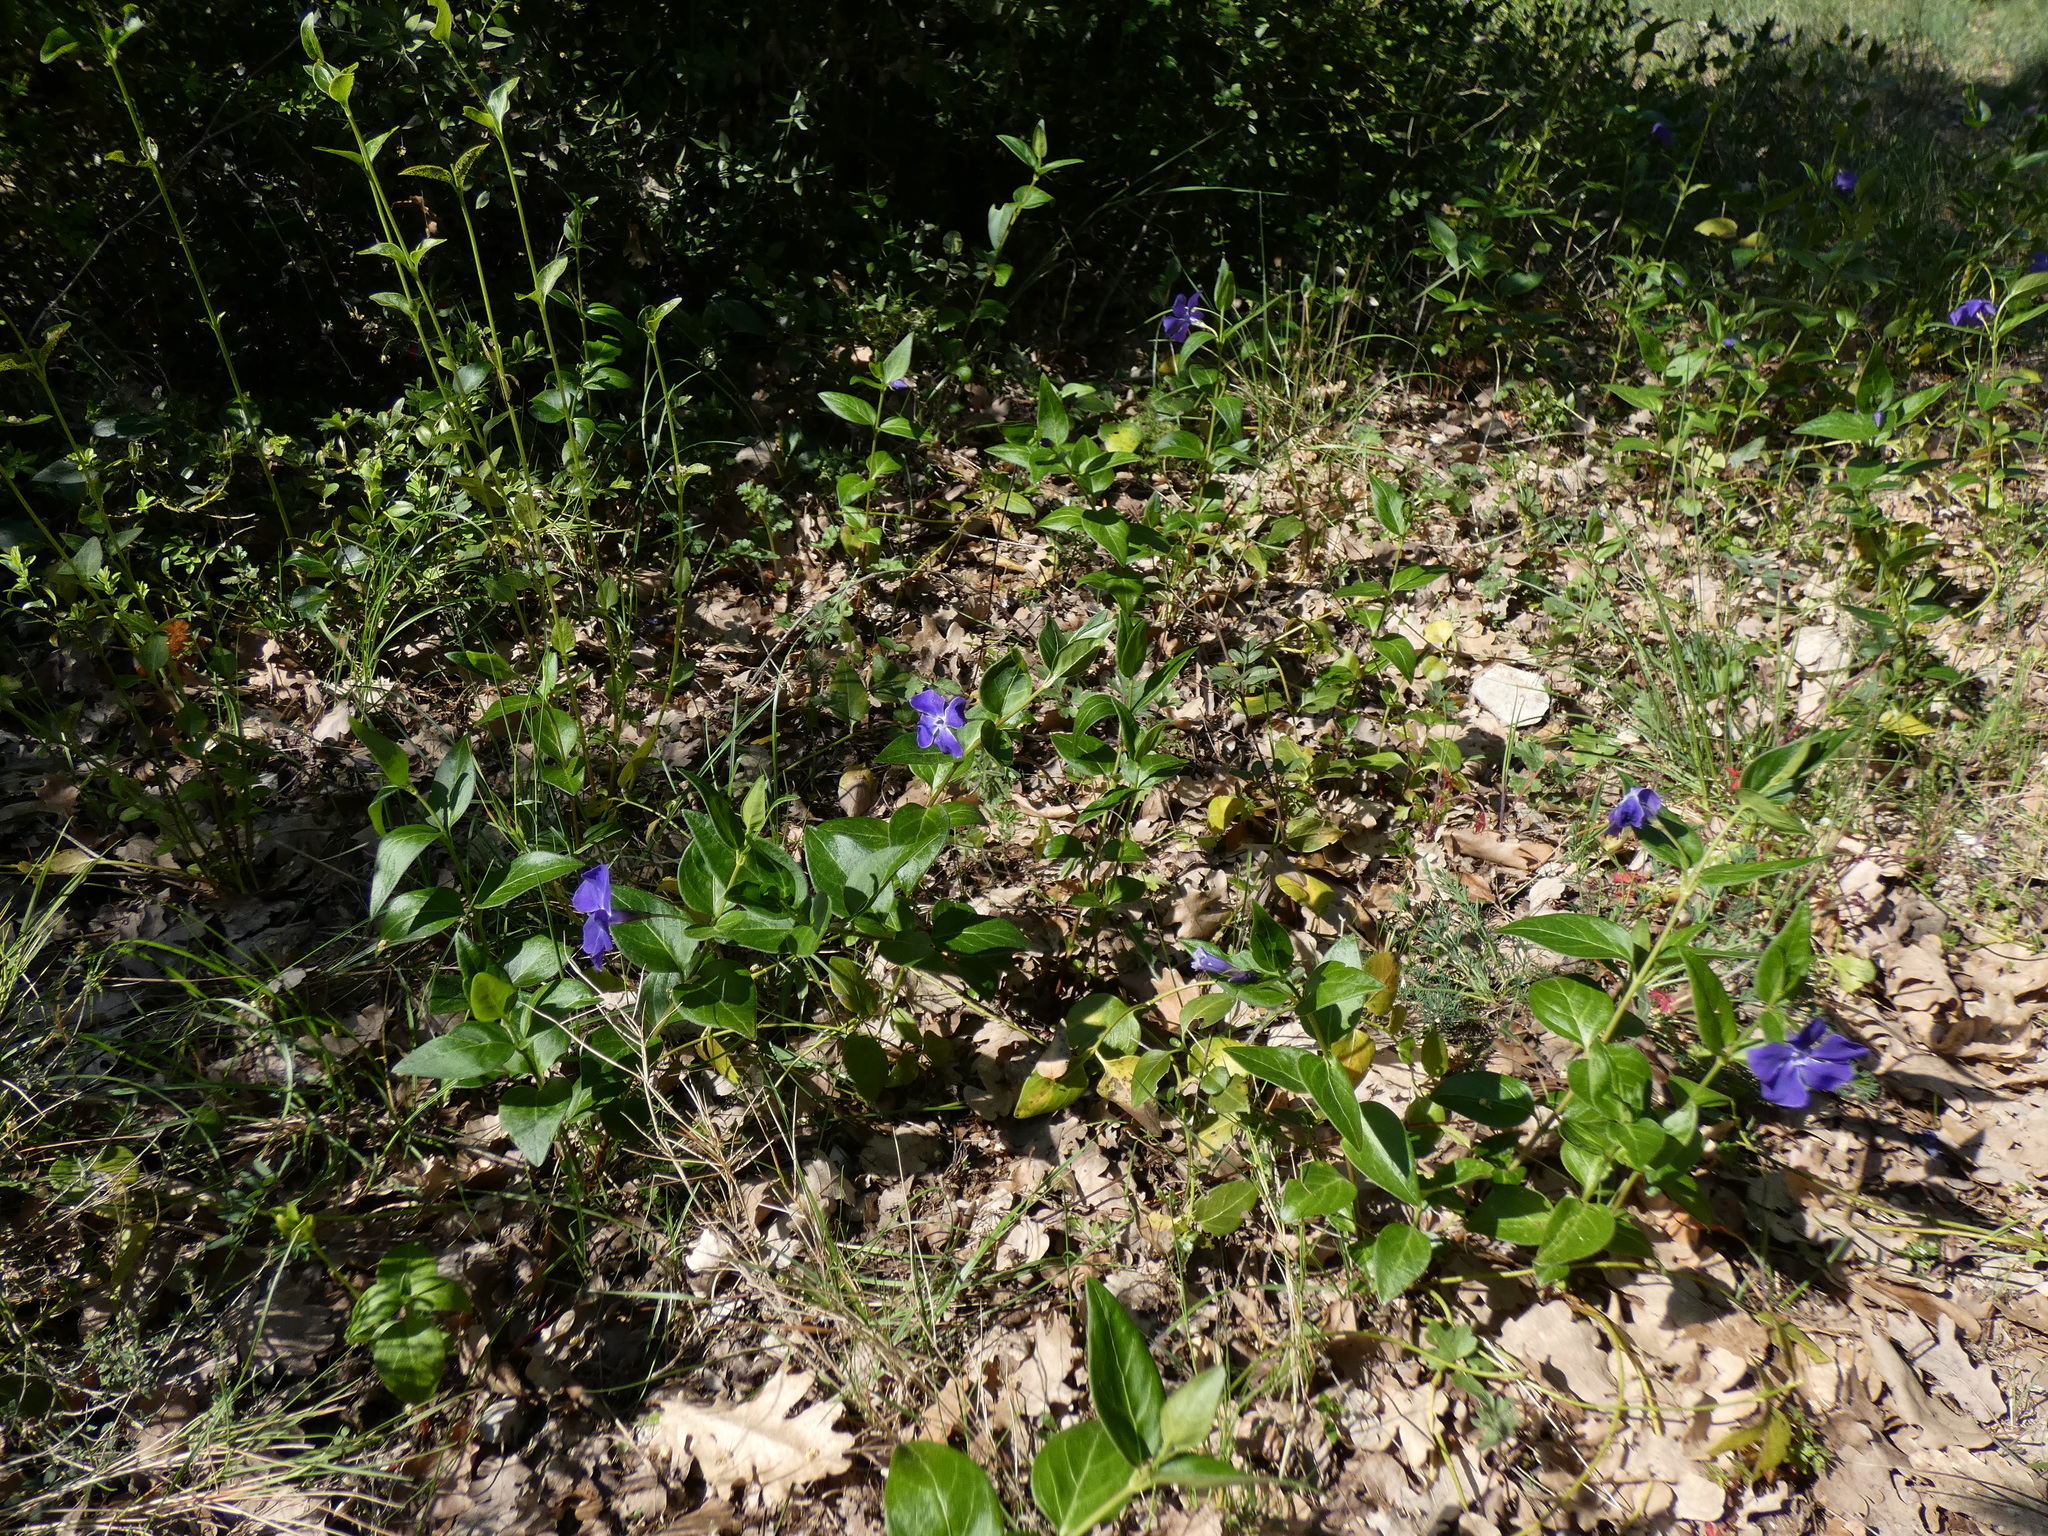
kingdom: Plantae
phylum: Tracheophyta
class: Magnoliopsida
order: Gentianales
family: Apocynaceae
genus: Vinca
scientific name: Vinca major
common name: Greater periwinkle
